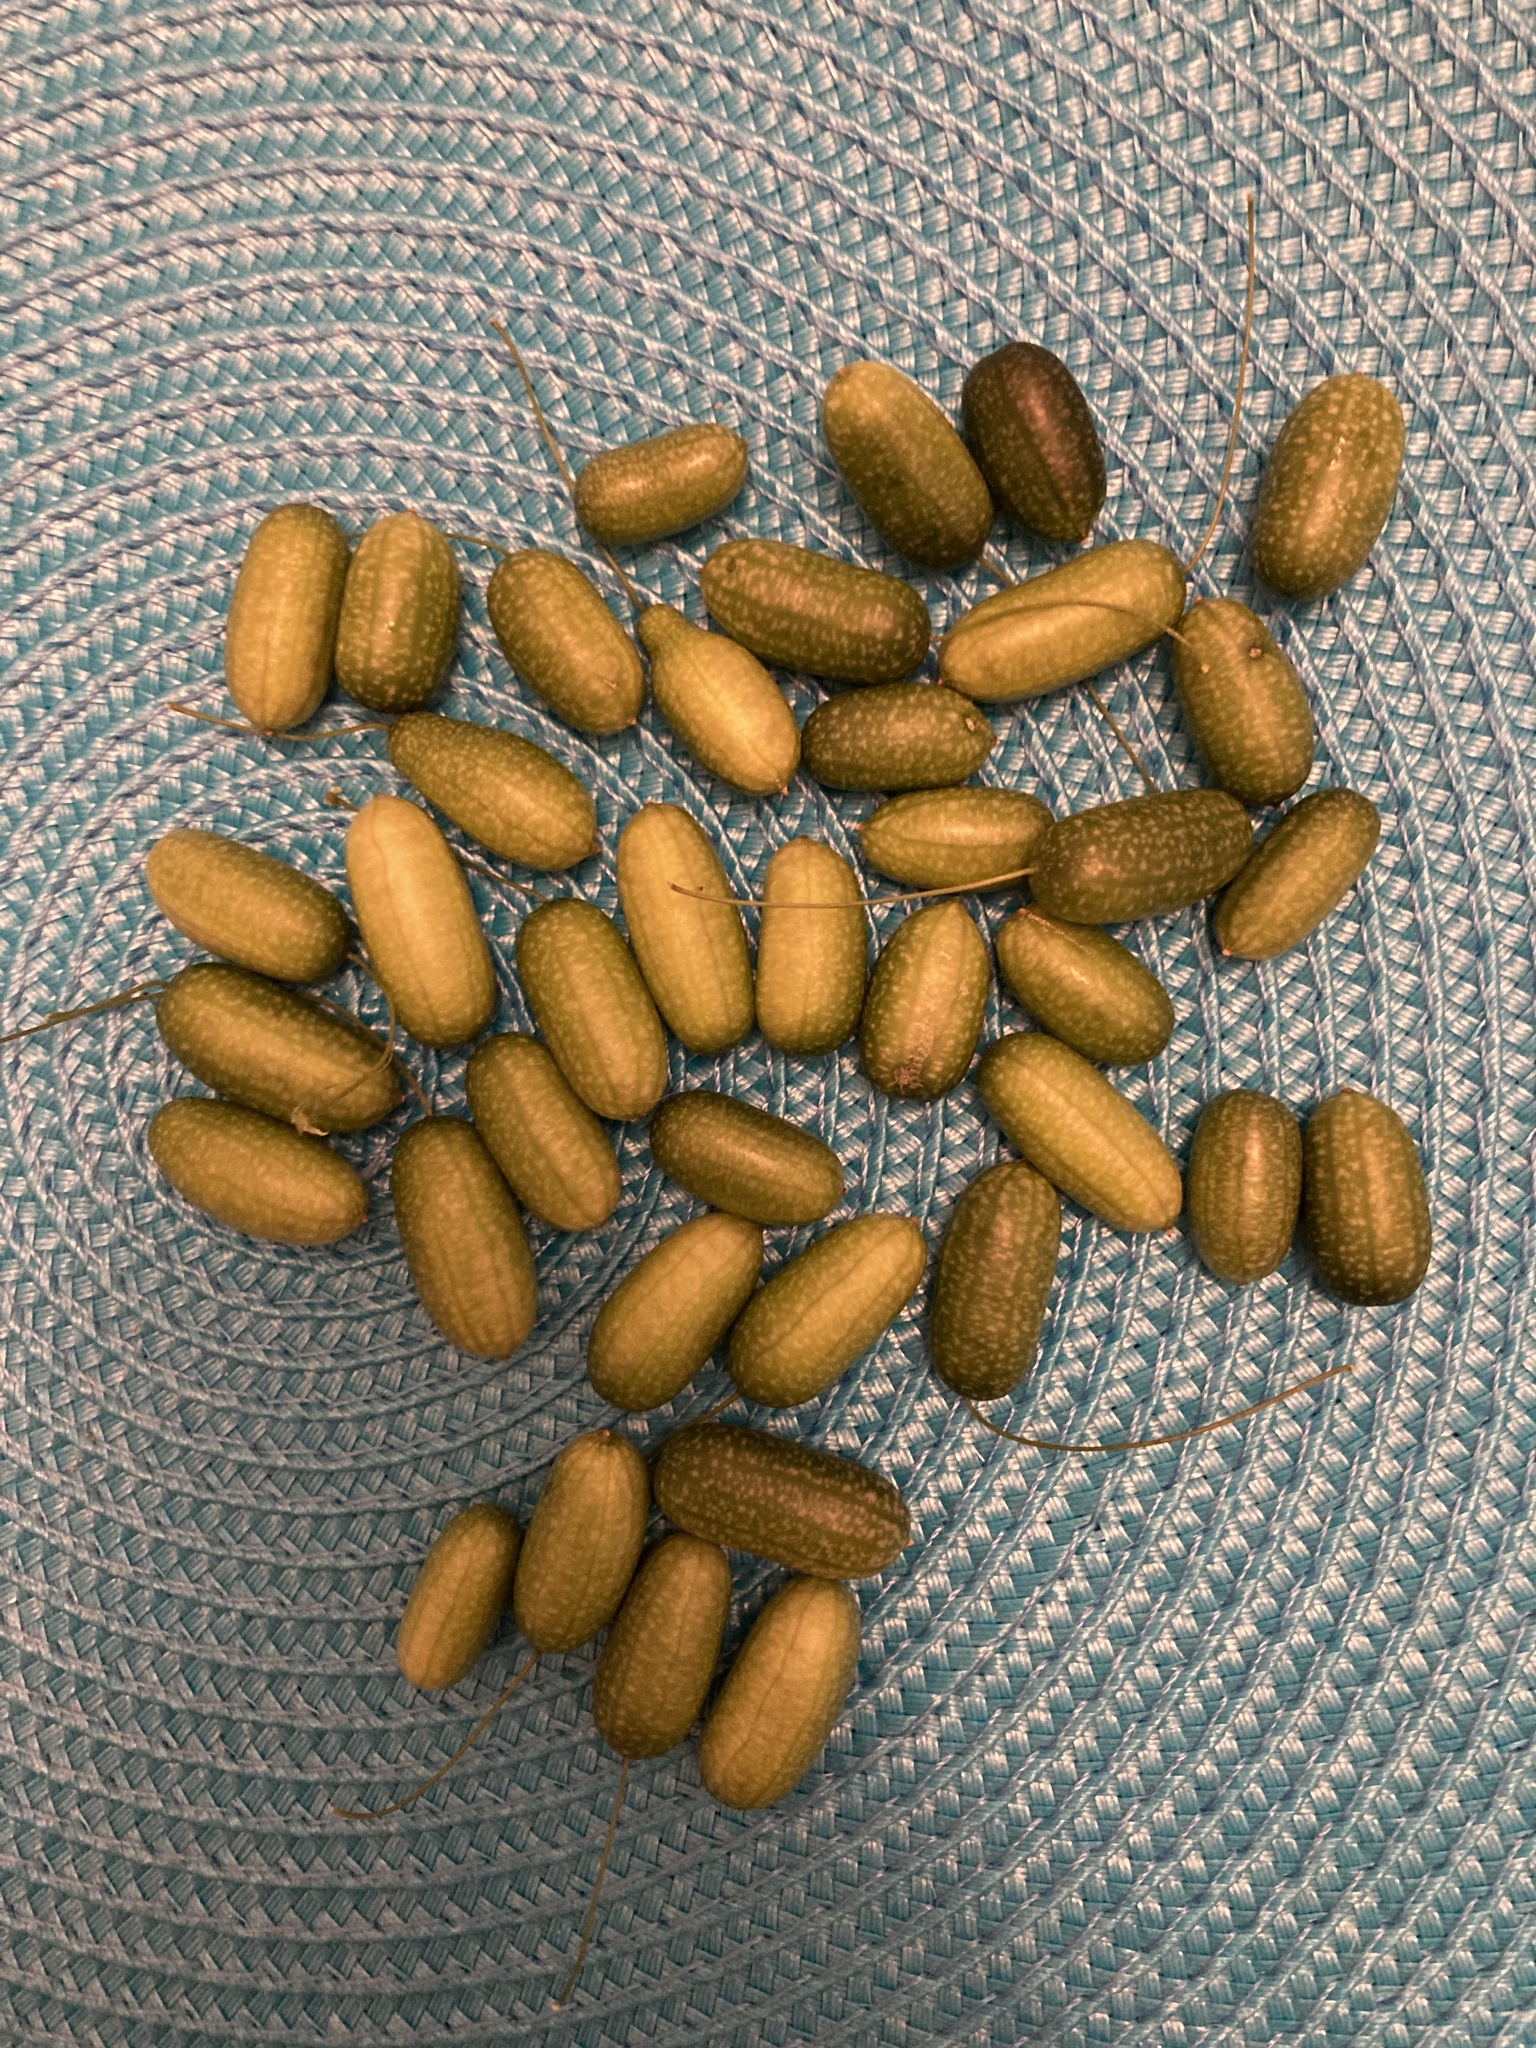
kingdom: Plantae
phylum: Tracheophyta
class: Magnoliopsida
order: Cucurbitales
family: Cucurbitaceae
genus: Melothria
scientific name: Melothria pendula
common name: Creeping-cucumber
